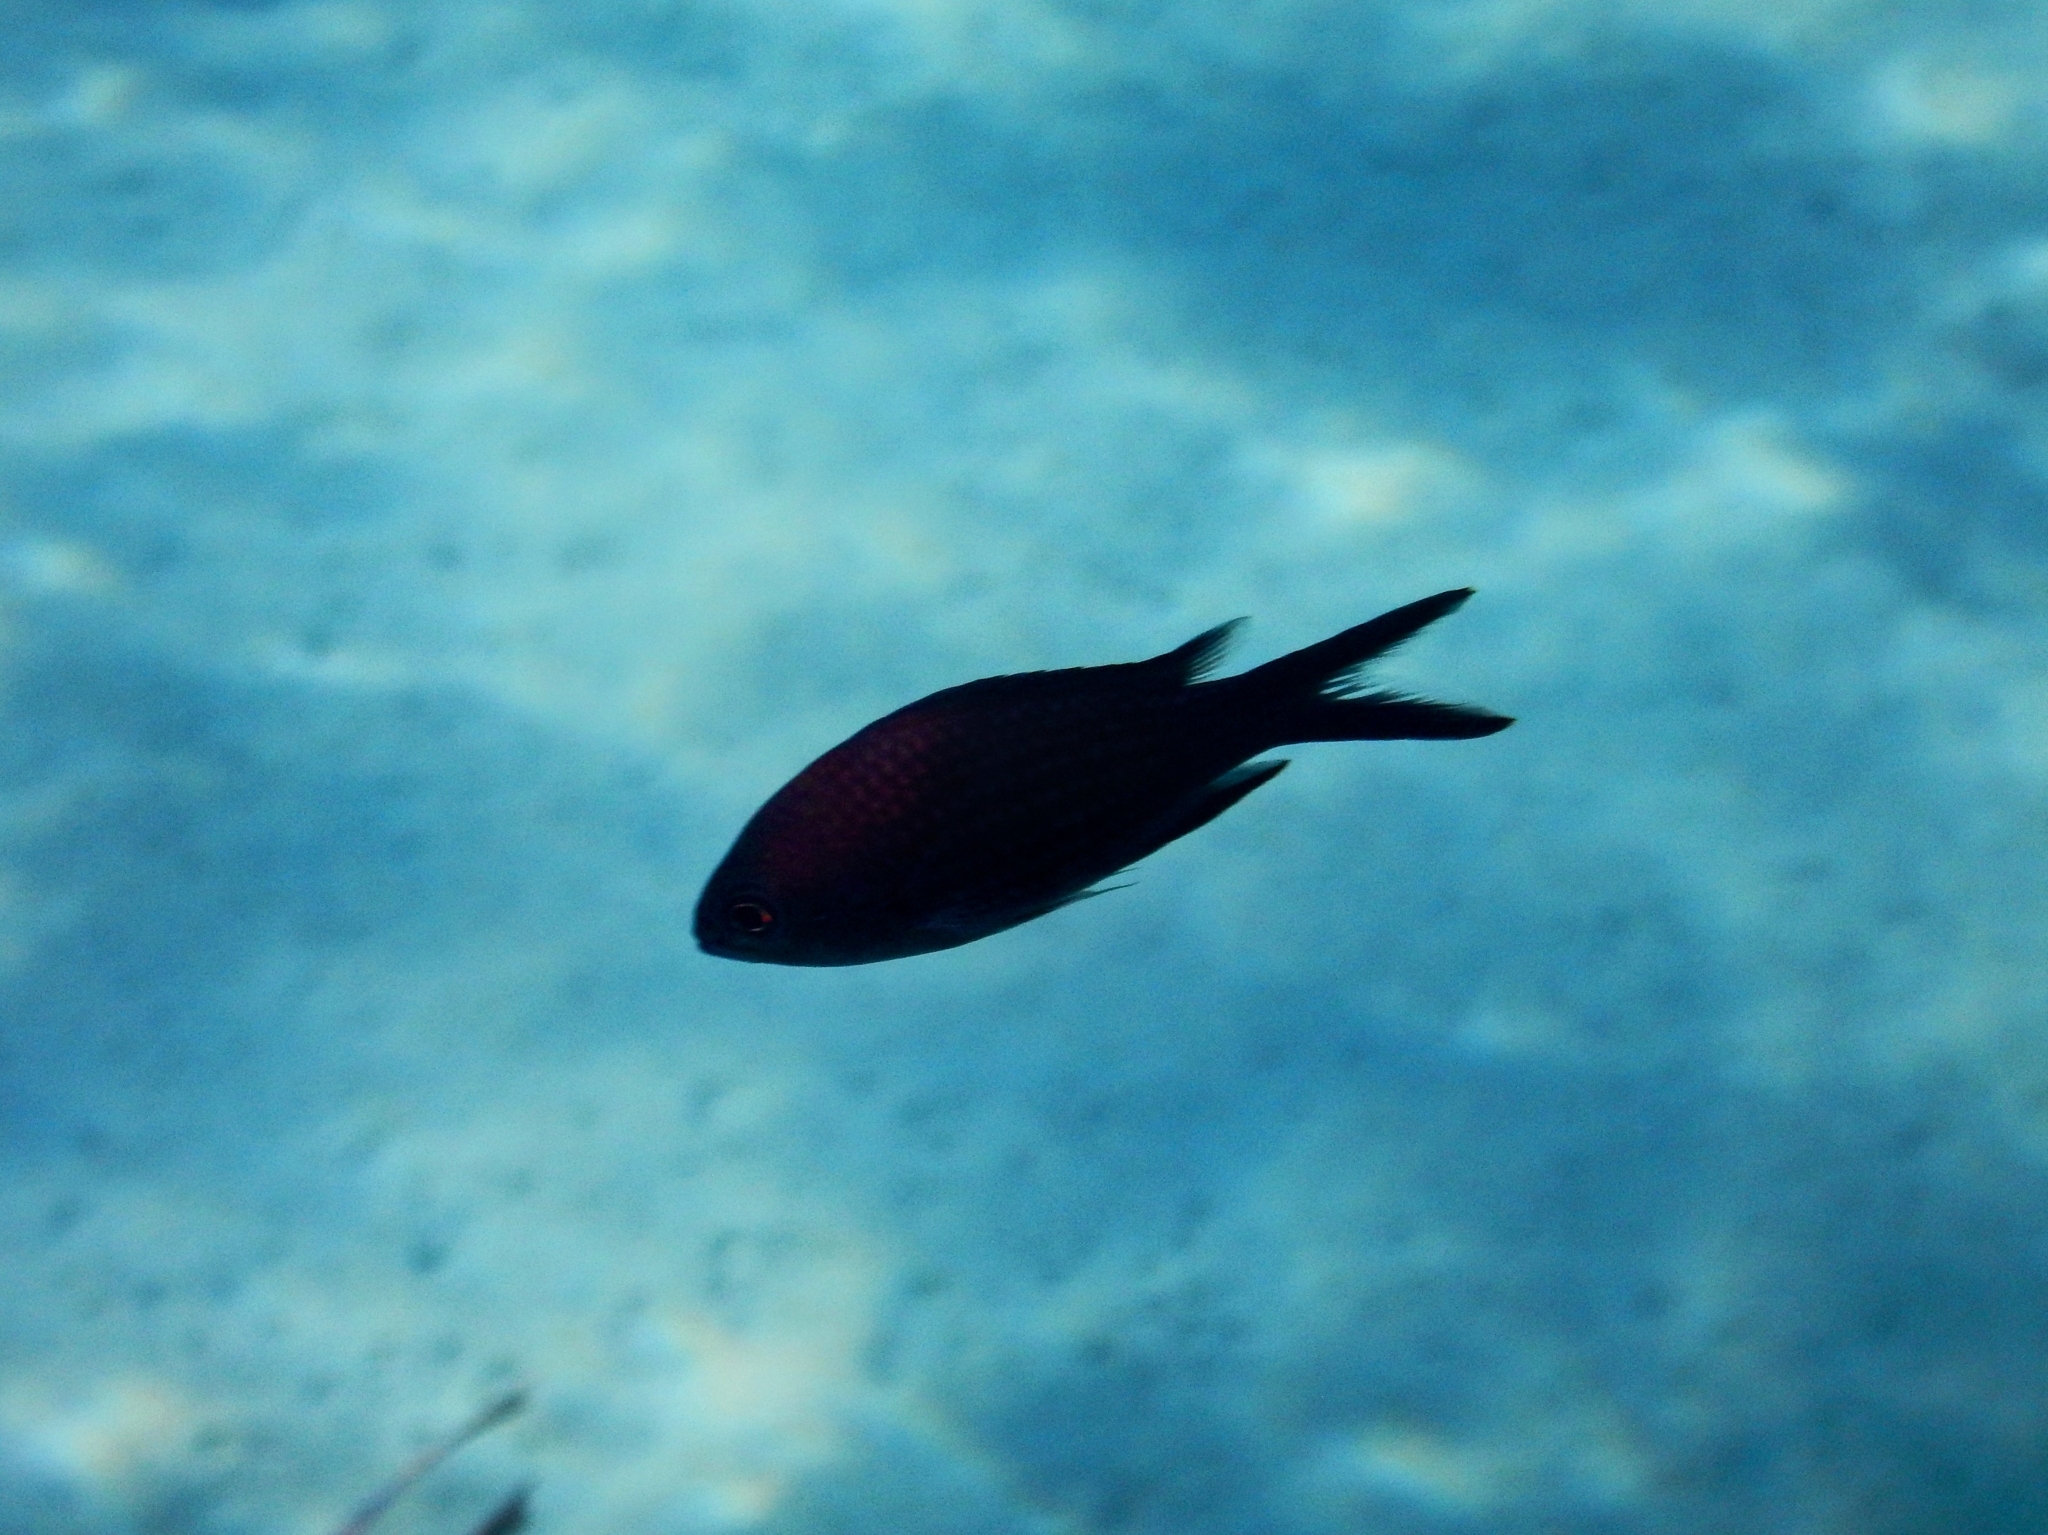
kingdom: Animalia
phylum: Chordata
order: Perciformes
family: Pomacentridae
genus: Chromis
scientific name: Chromis chromis
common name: Damselfish
